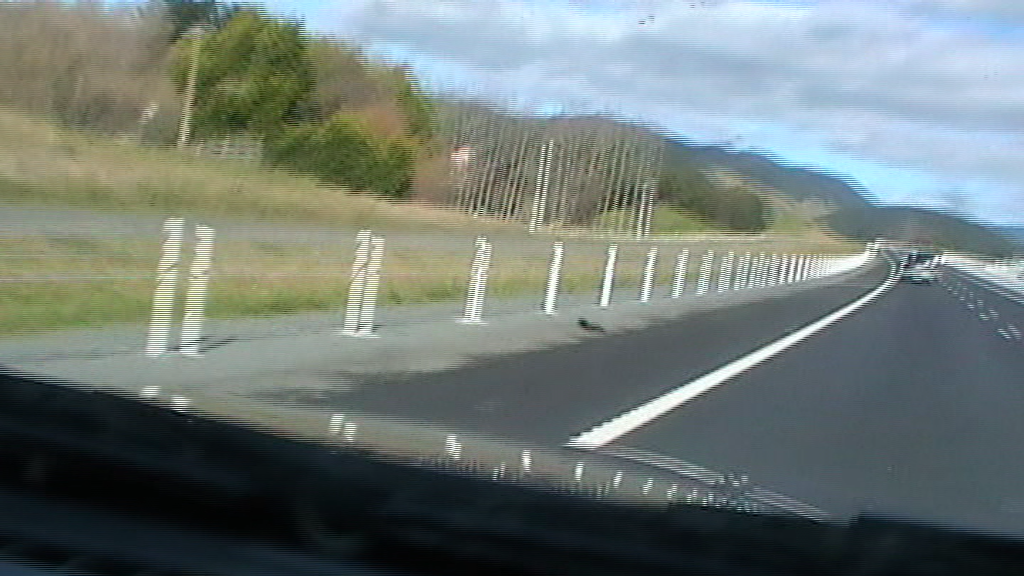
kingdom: Animalia
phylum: Chordata
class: Aves
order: Gruiformes
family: Rallidae
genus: Porphyrio
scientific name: Porphyrio melanotus
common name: Australasian swamphen
